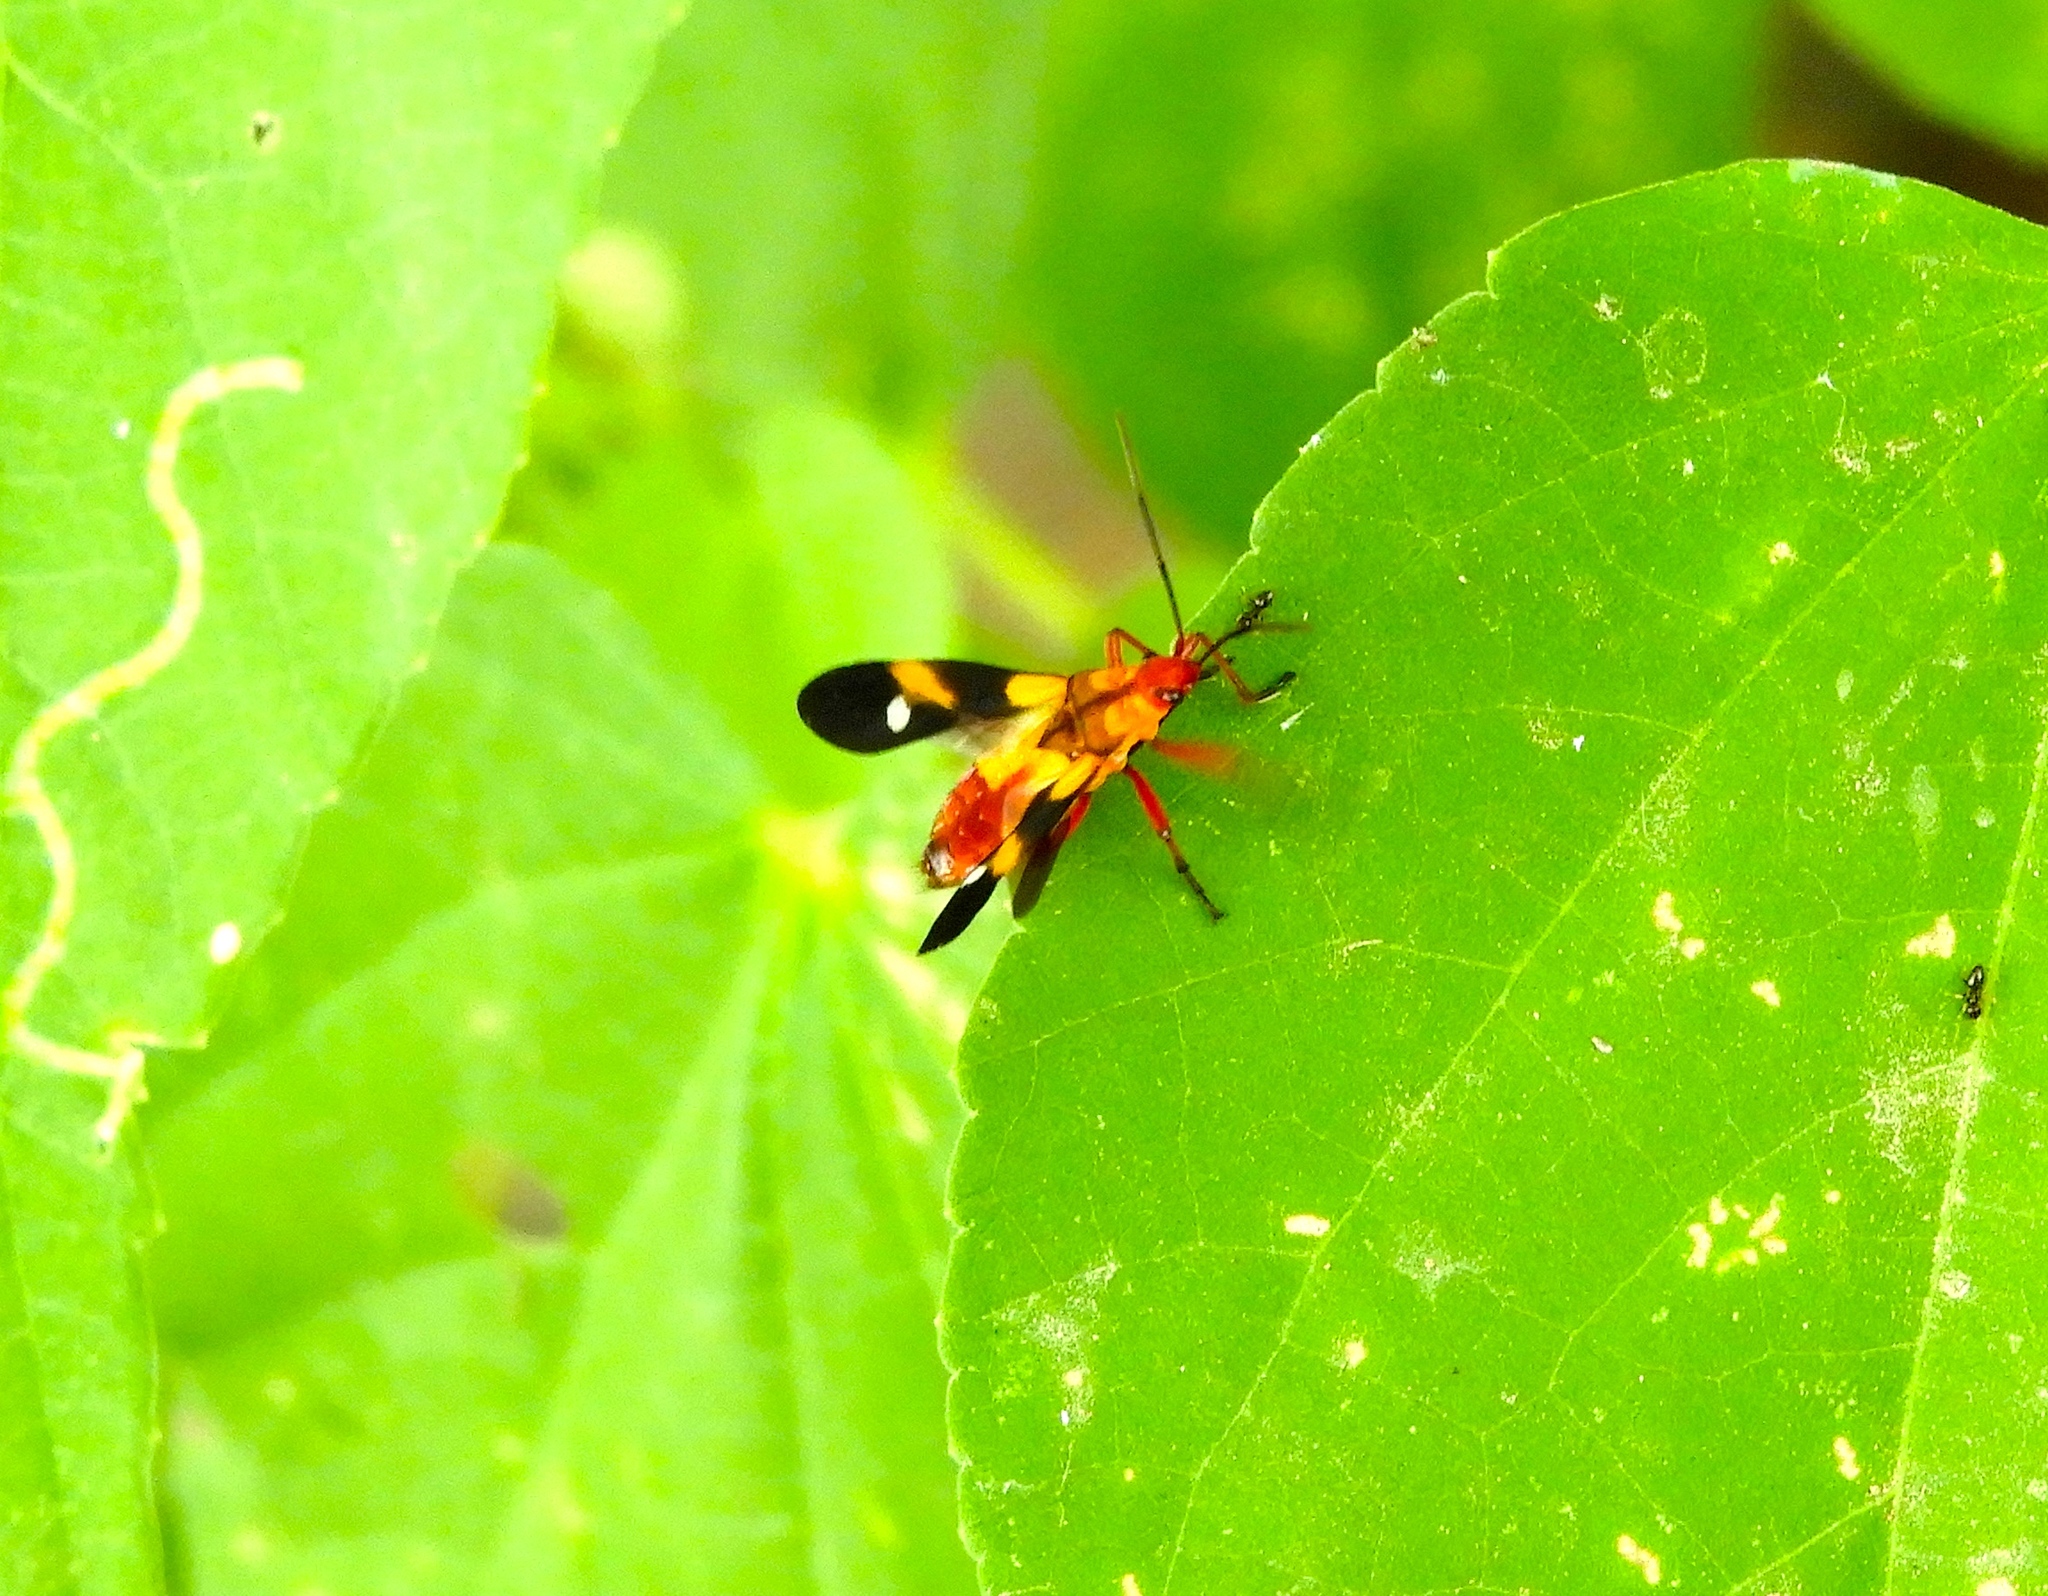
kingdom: Animalia
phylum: Arthropoda
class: Insecta
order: Hemiptera
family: Lygaeidae
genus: Oncopeltus
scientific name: Oncopeltus guttaloides
